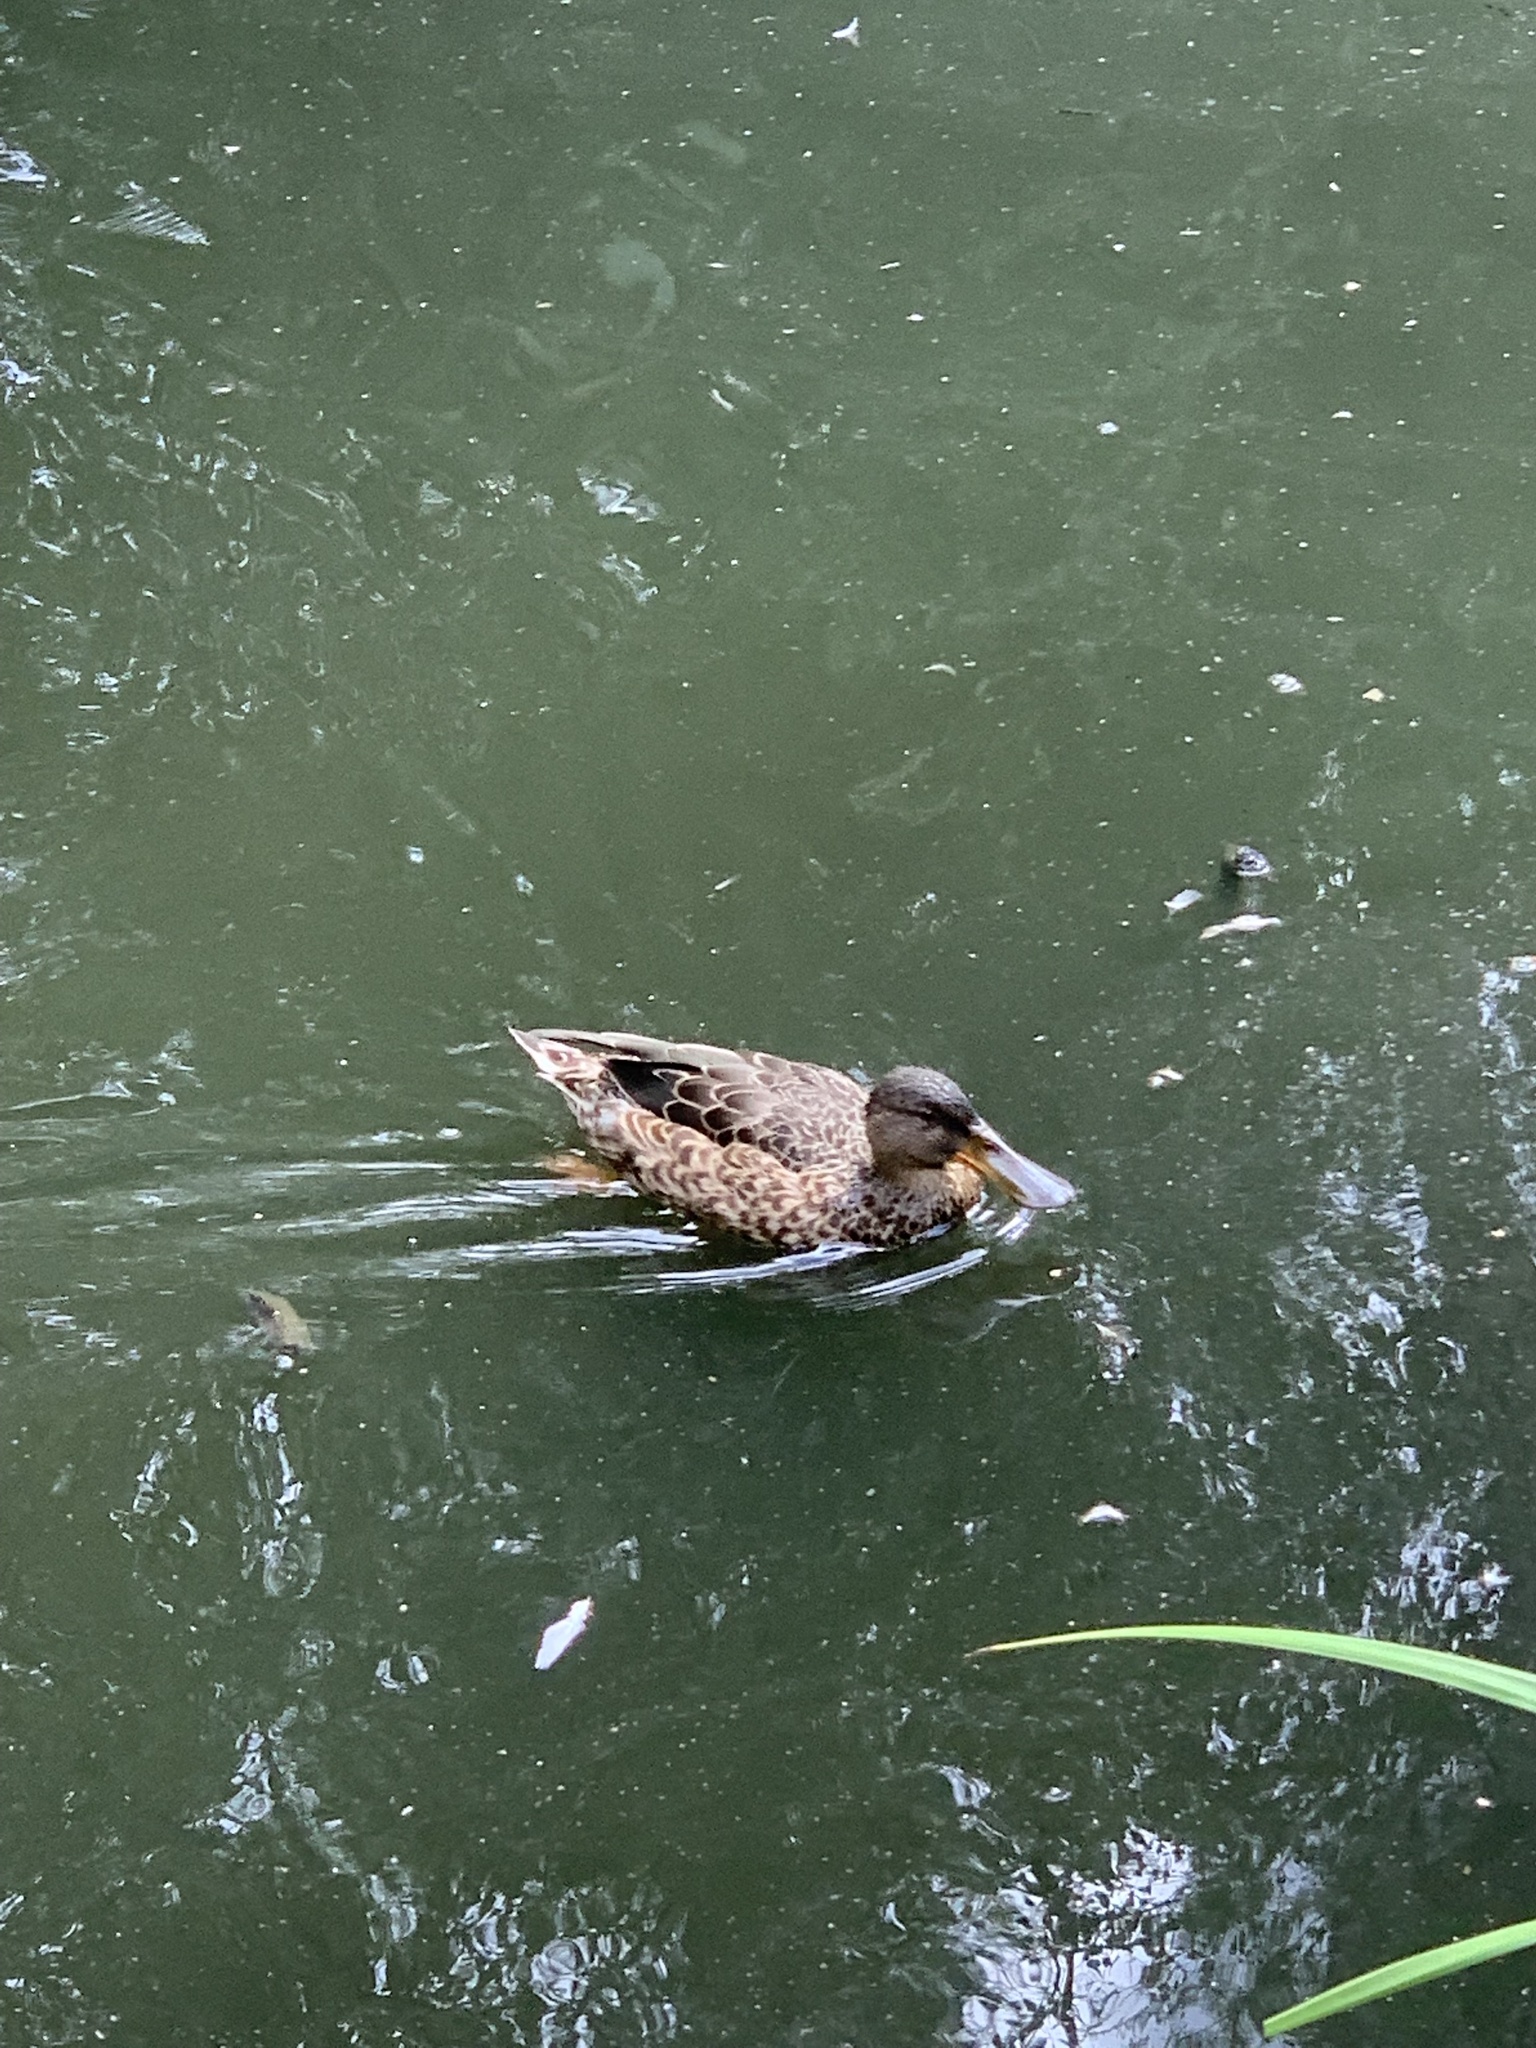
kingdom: Animalia
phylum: Chordata
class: Aves
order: Anseriformes
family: Anatidae
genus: Spatula
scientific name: Spatula clypeata
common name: Northern shoveler
